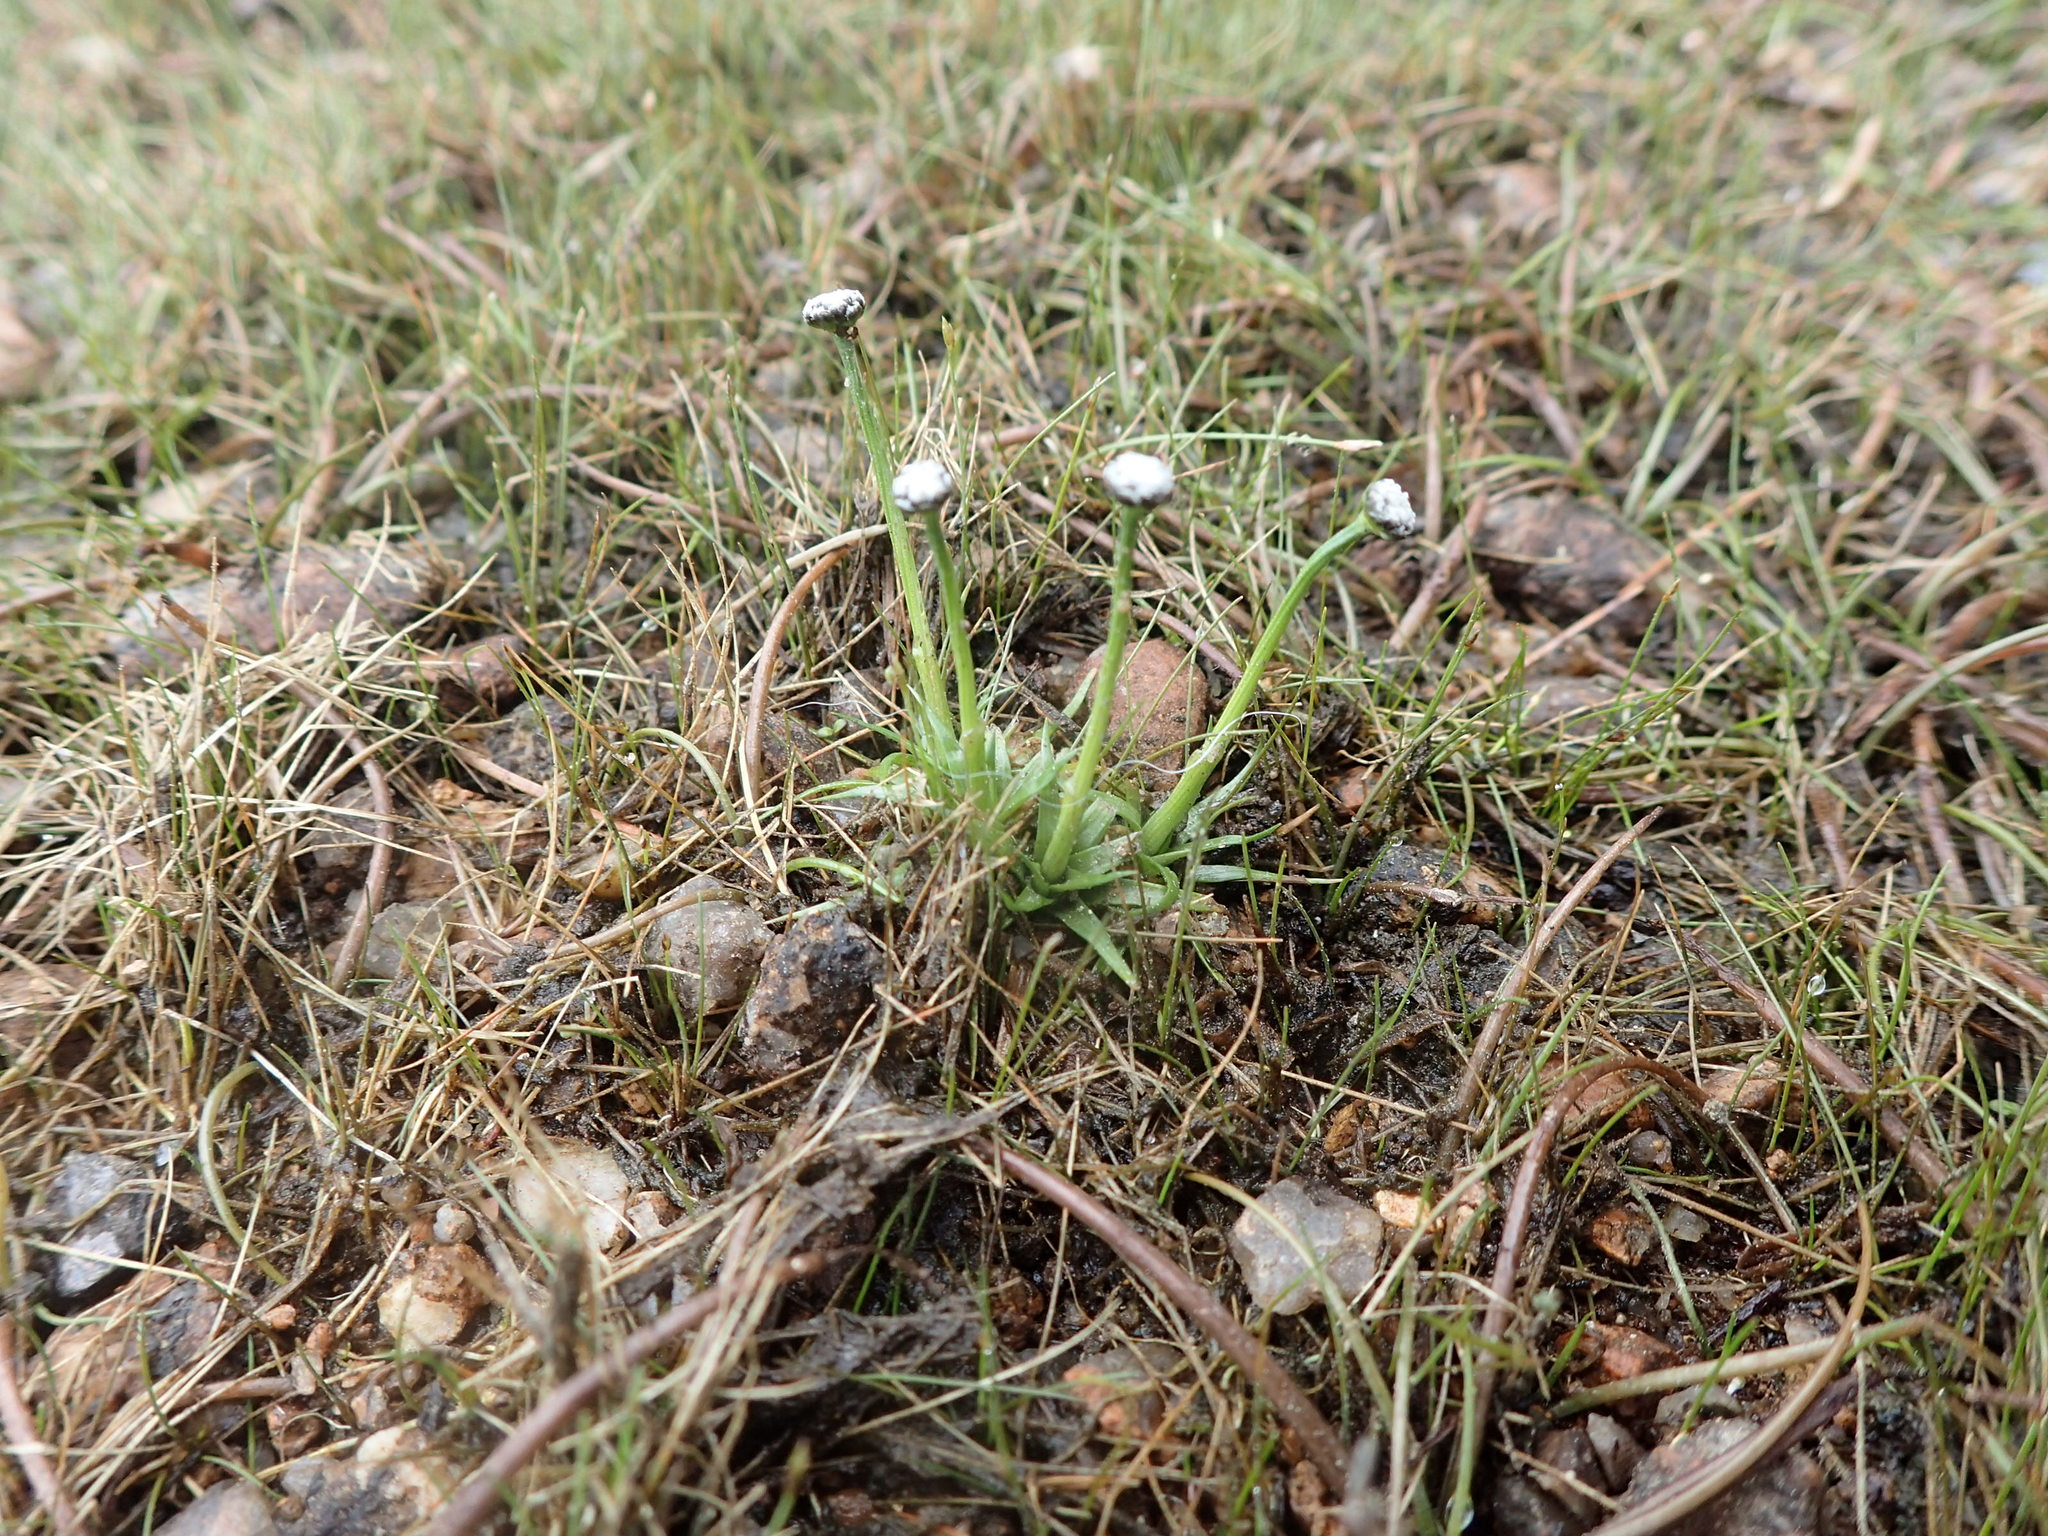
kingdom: Plantae
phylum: Tracheophyta
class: Liliopsida
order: Poales
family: Eriocaulaceae
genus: Eriocaulon
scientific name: Eriocaulon aquaticum
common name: Pipewort
